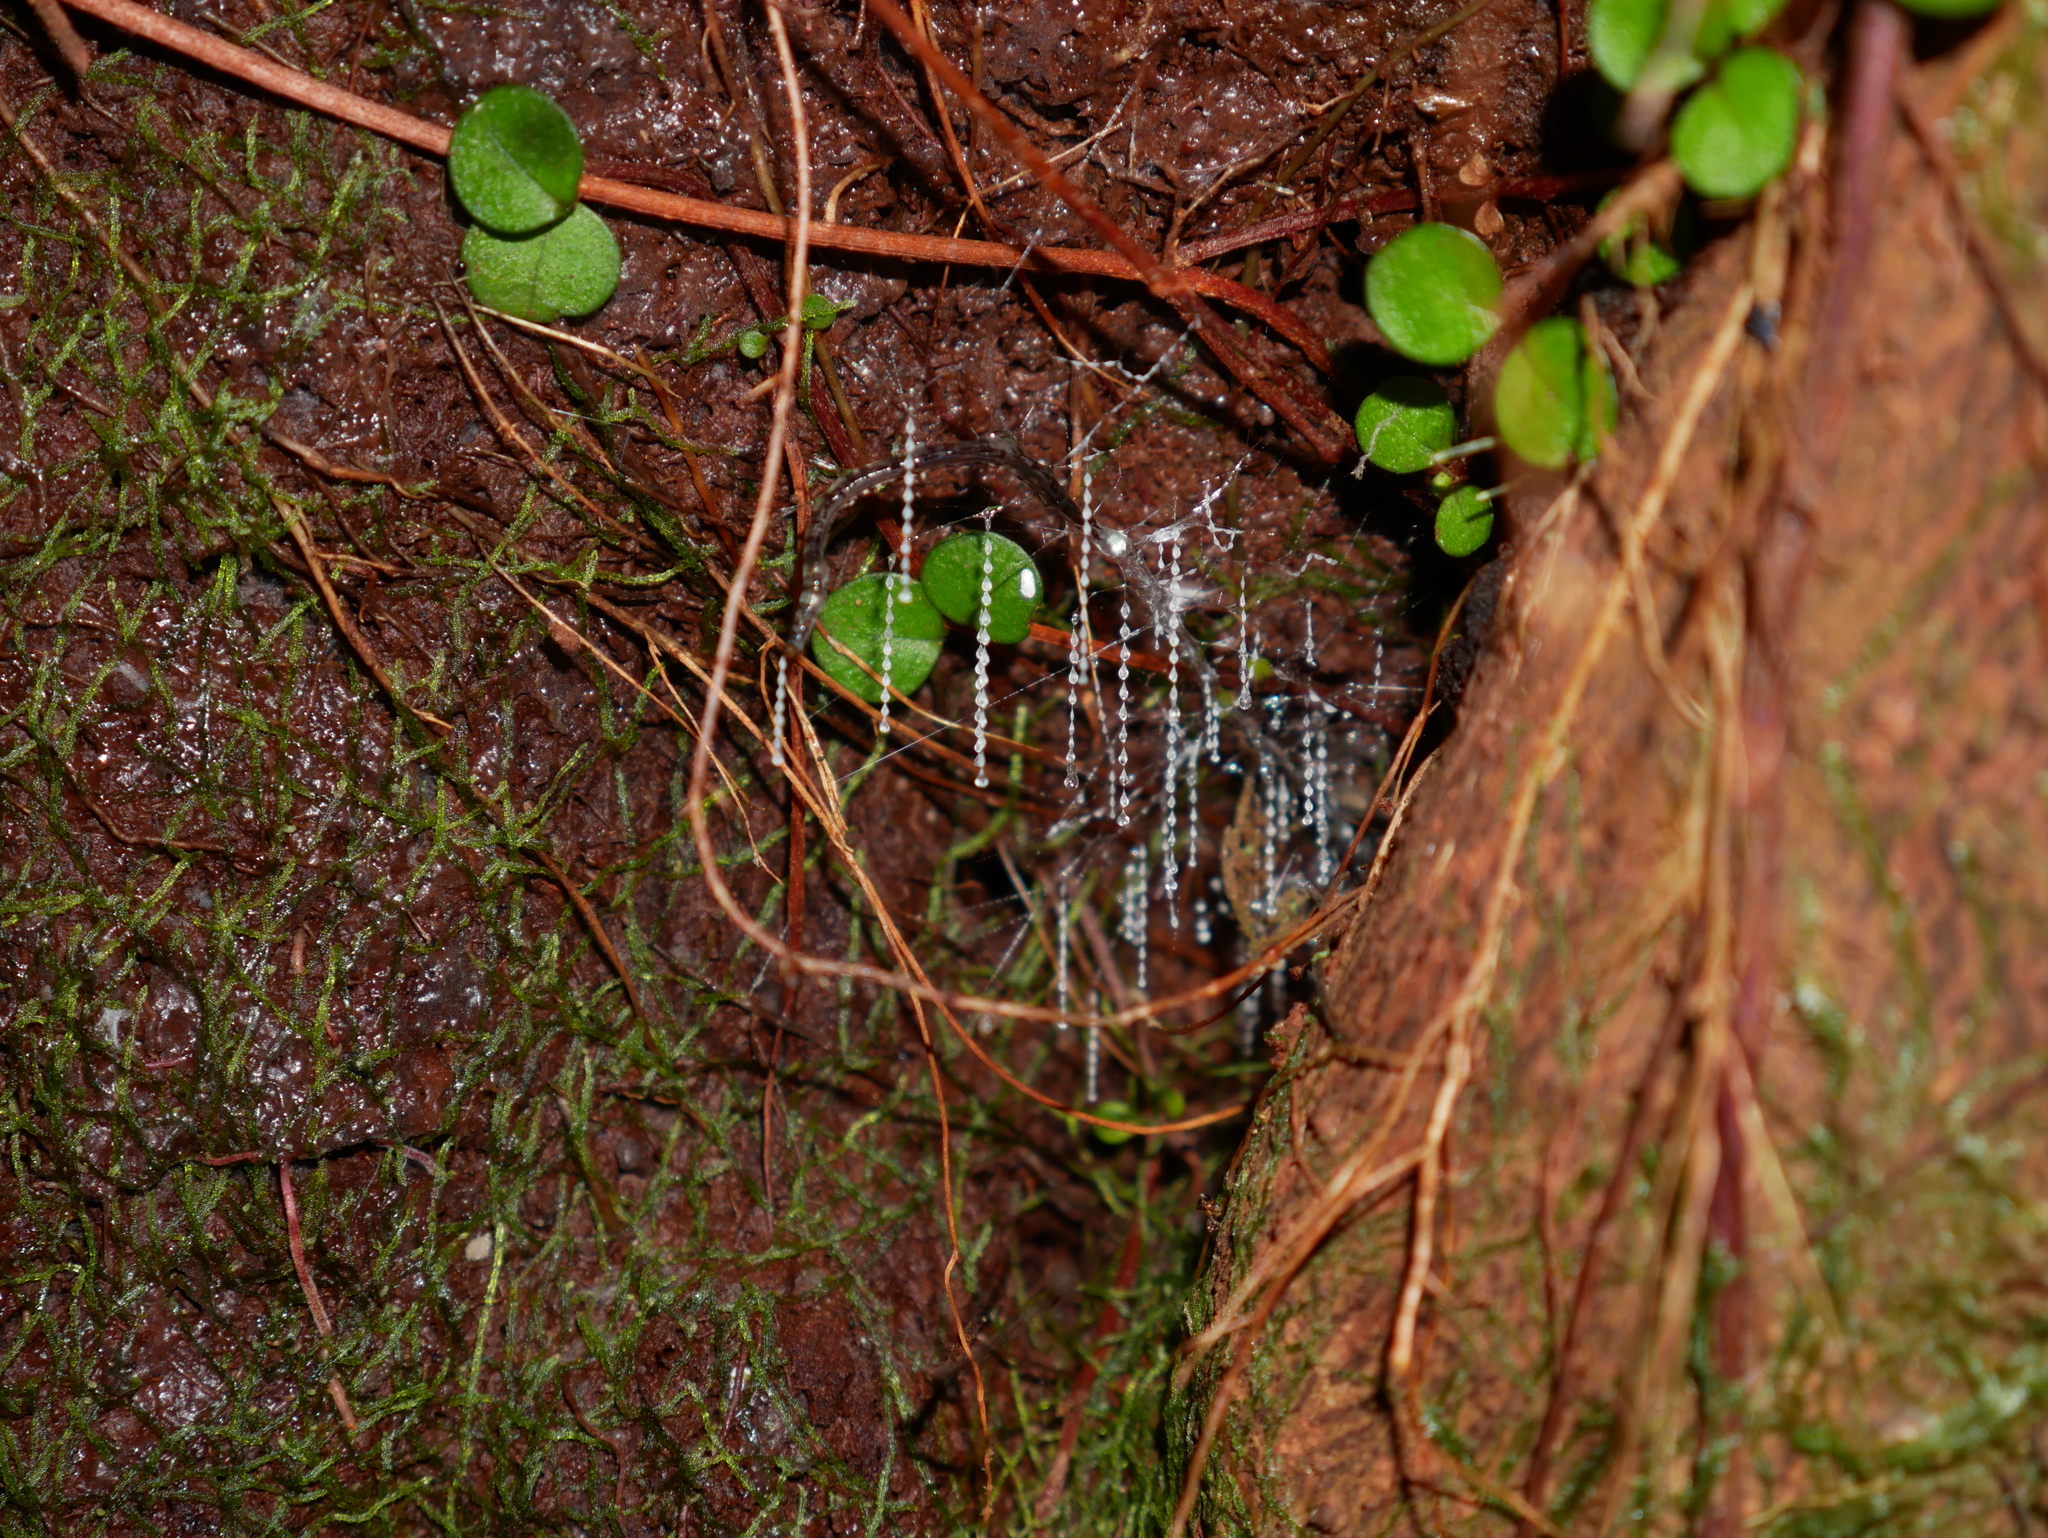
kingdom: Animalia
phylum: Arthropoda
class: Insecta
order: Diptera
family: Keroplatidae
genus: Arachnocampa
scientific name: Arachnocampa luminosa
